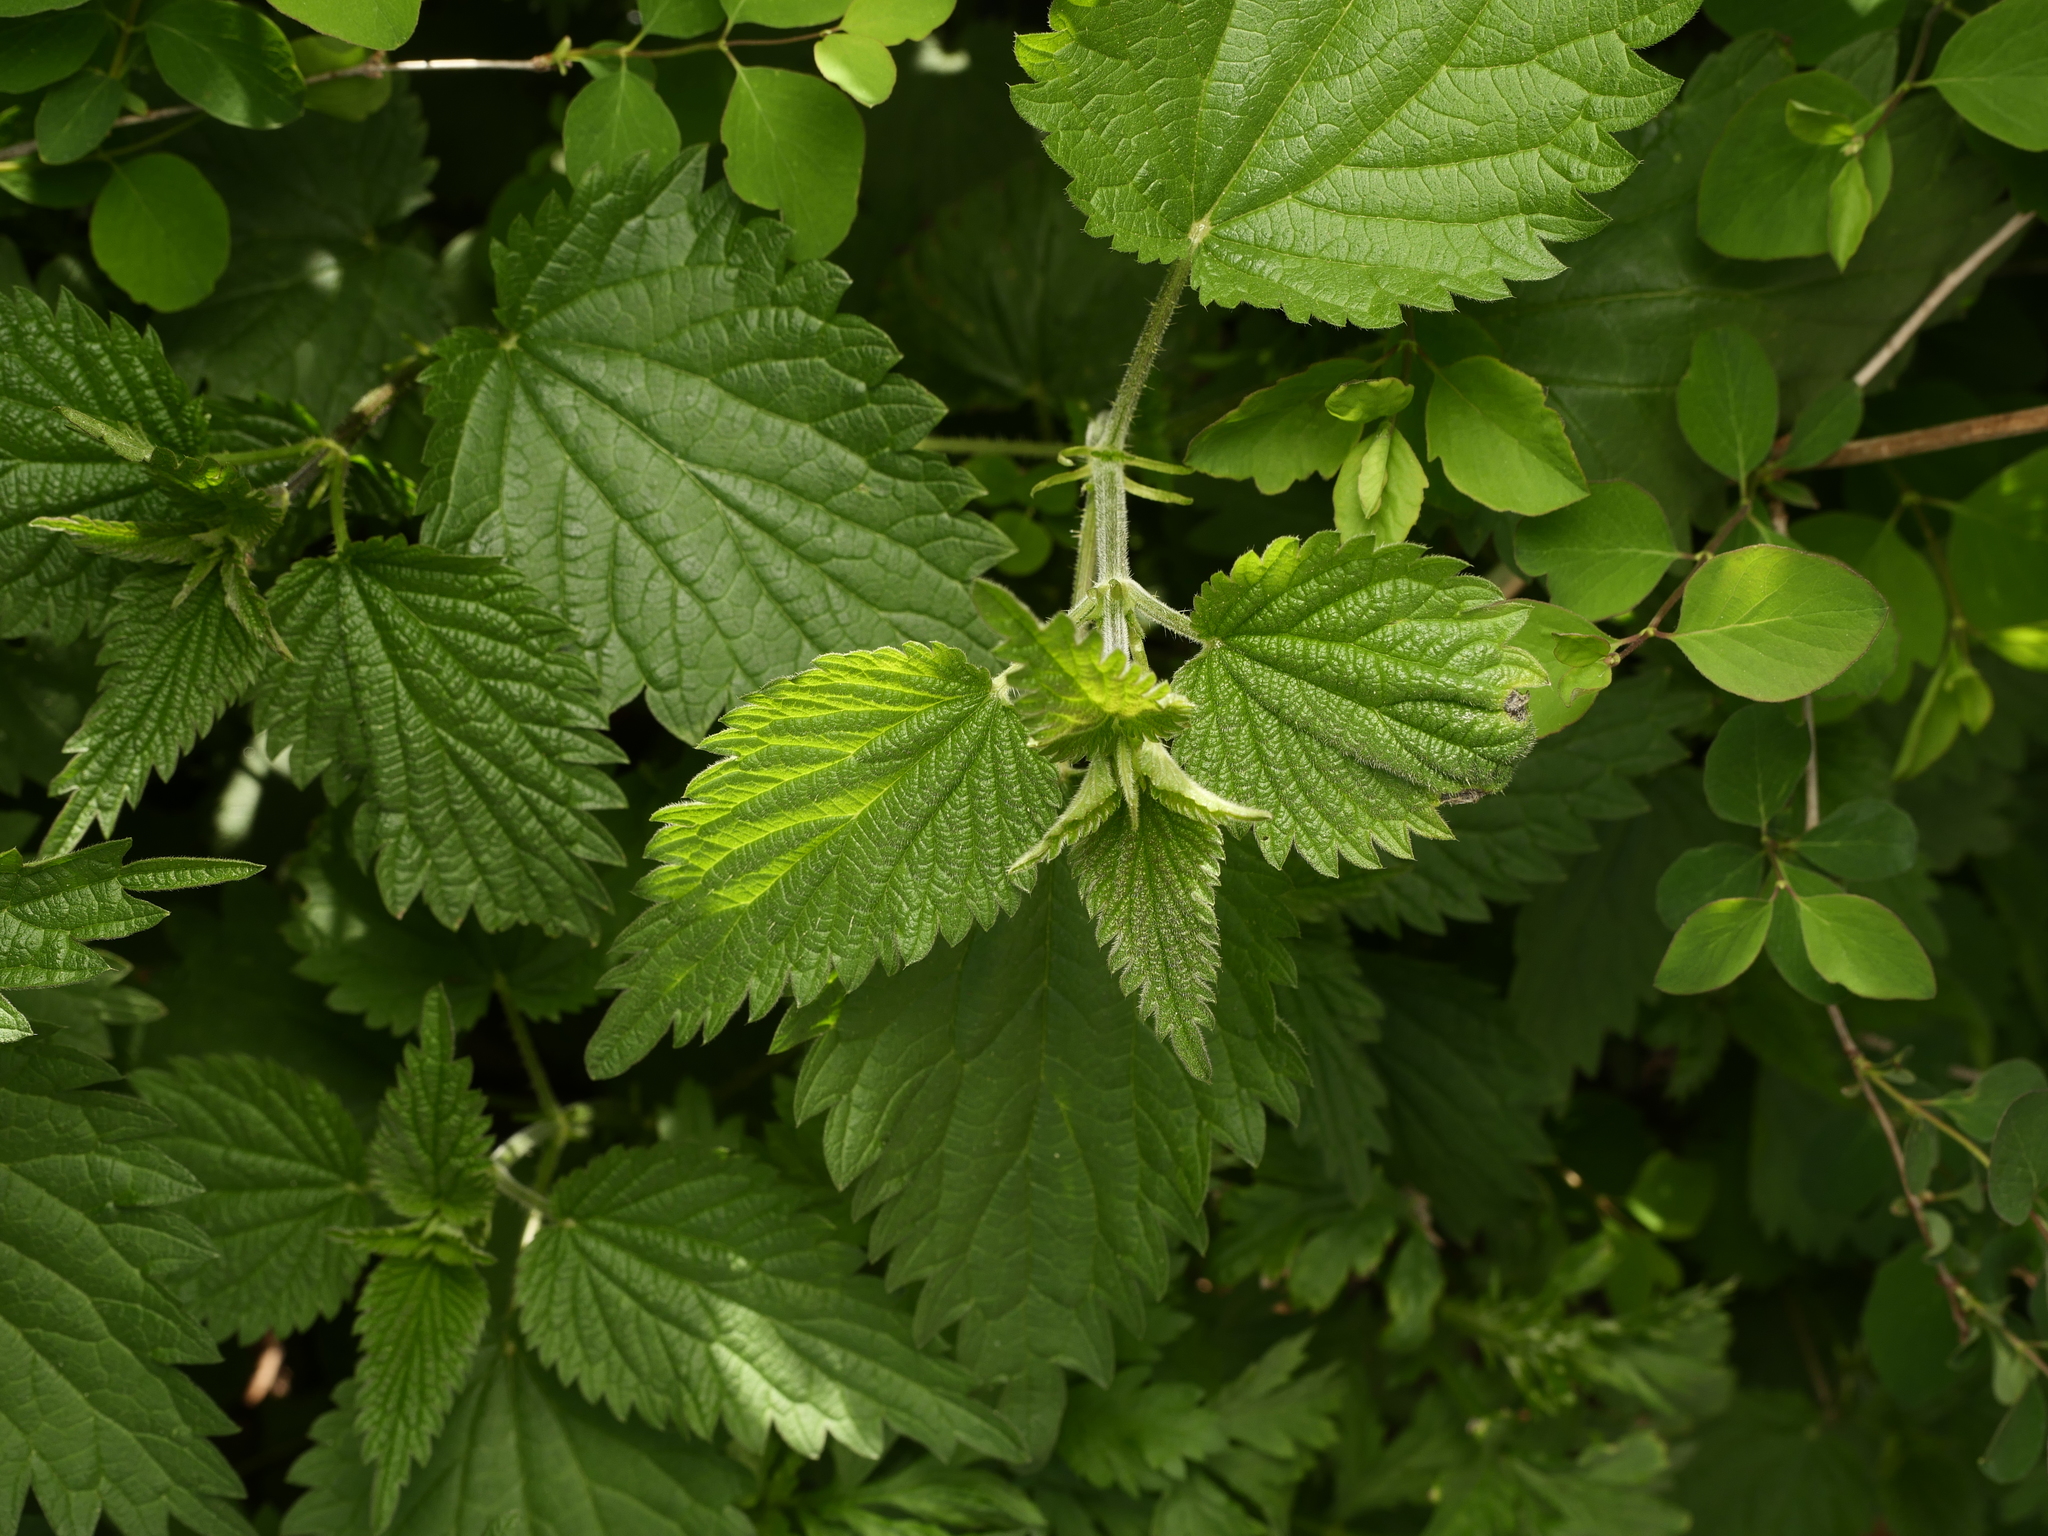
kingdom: Plantae
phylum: Tracheophyta
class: Magnoliopsida
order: Rosales
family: Urticaceae
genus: Urtica
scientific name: Urtica dioica
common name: Common nettle
